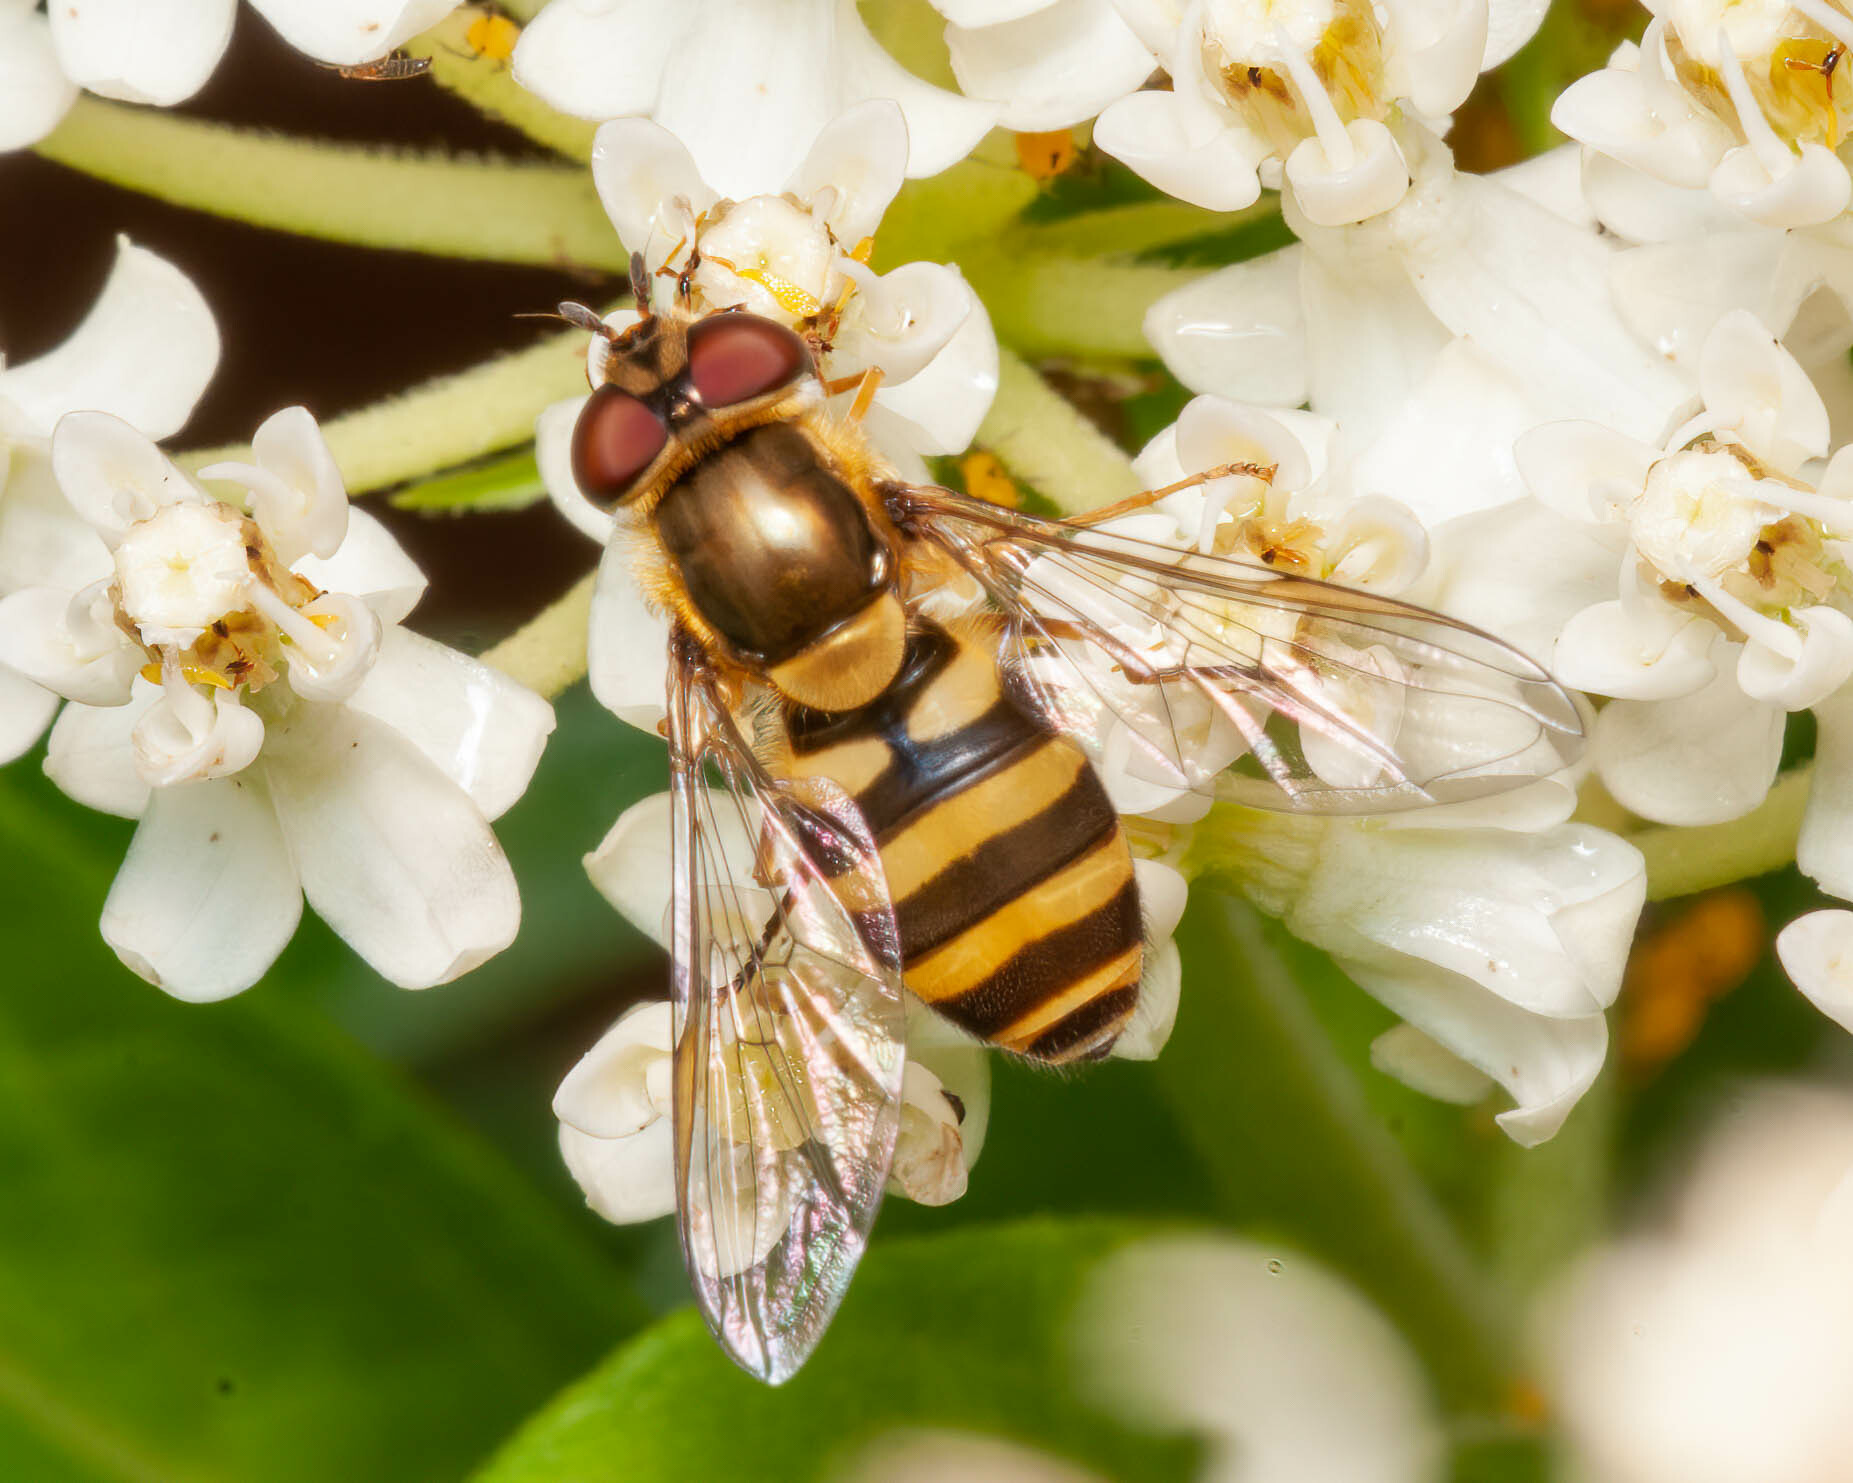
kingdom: Animalia
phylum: Arthropoda
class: Insecta
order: Diptera
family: Syrphidae
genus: Syrphus
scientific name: Syrphus
